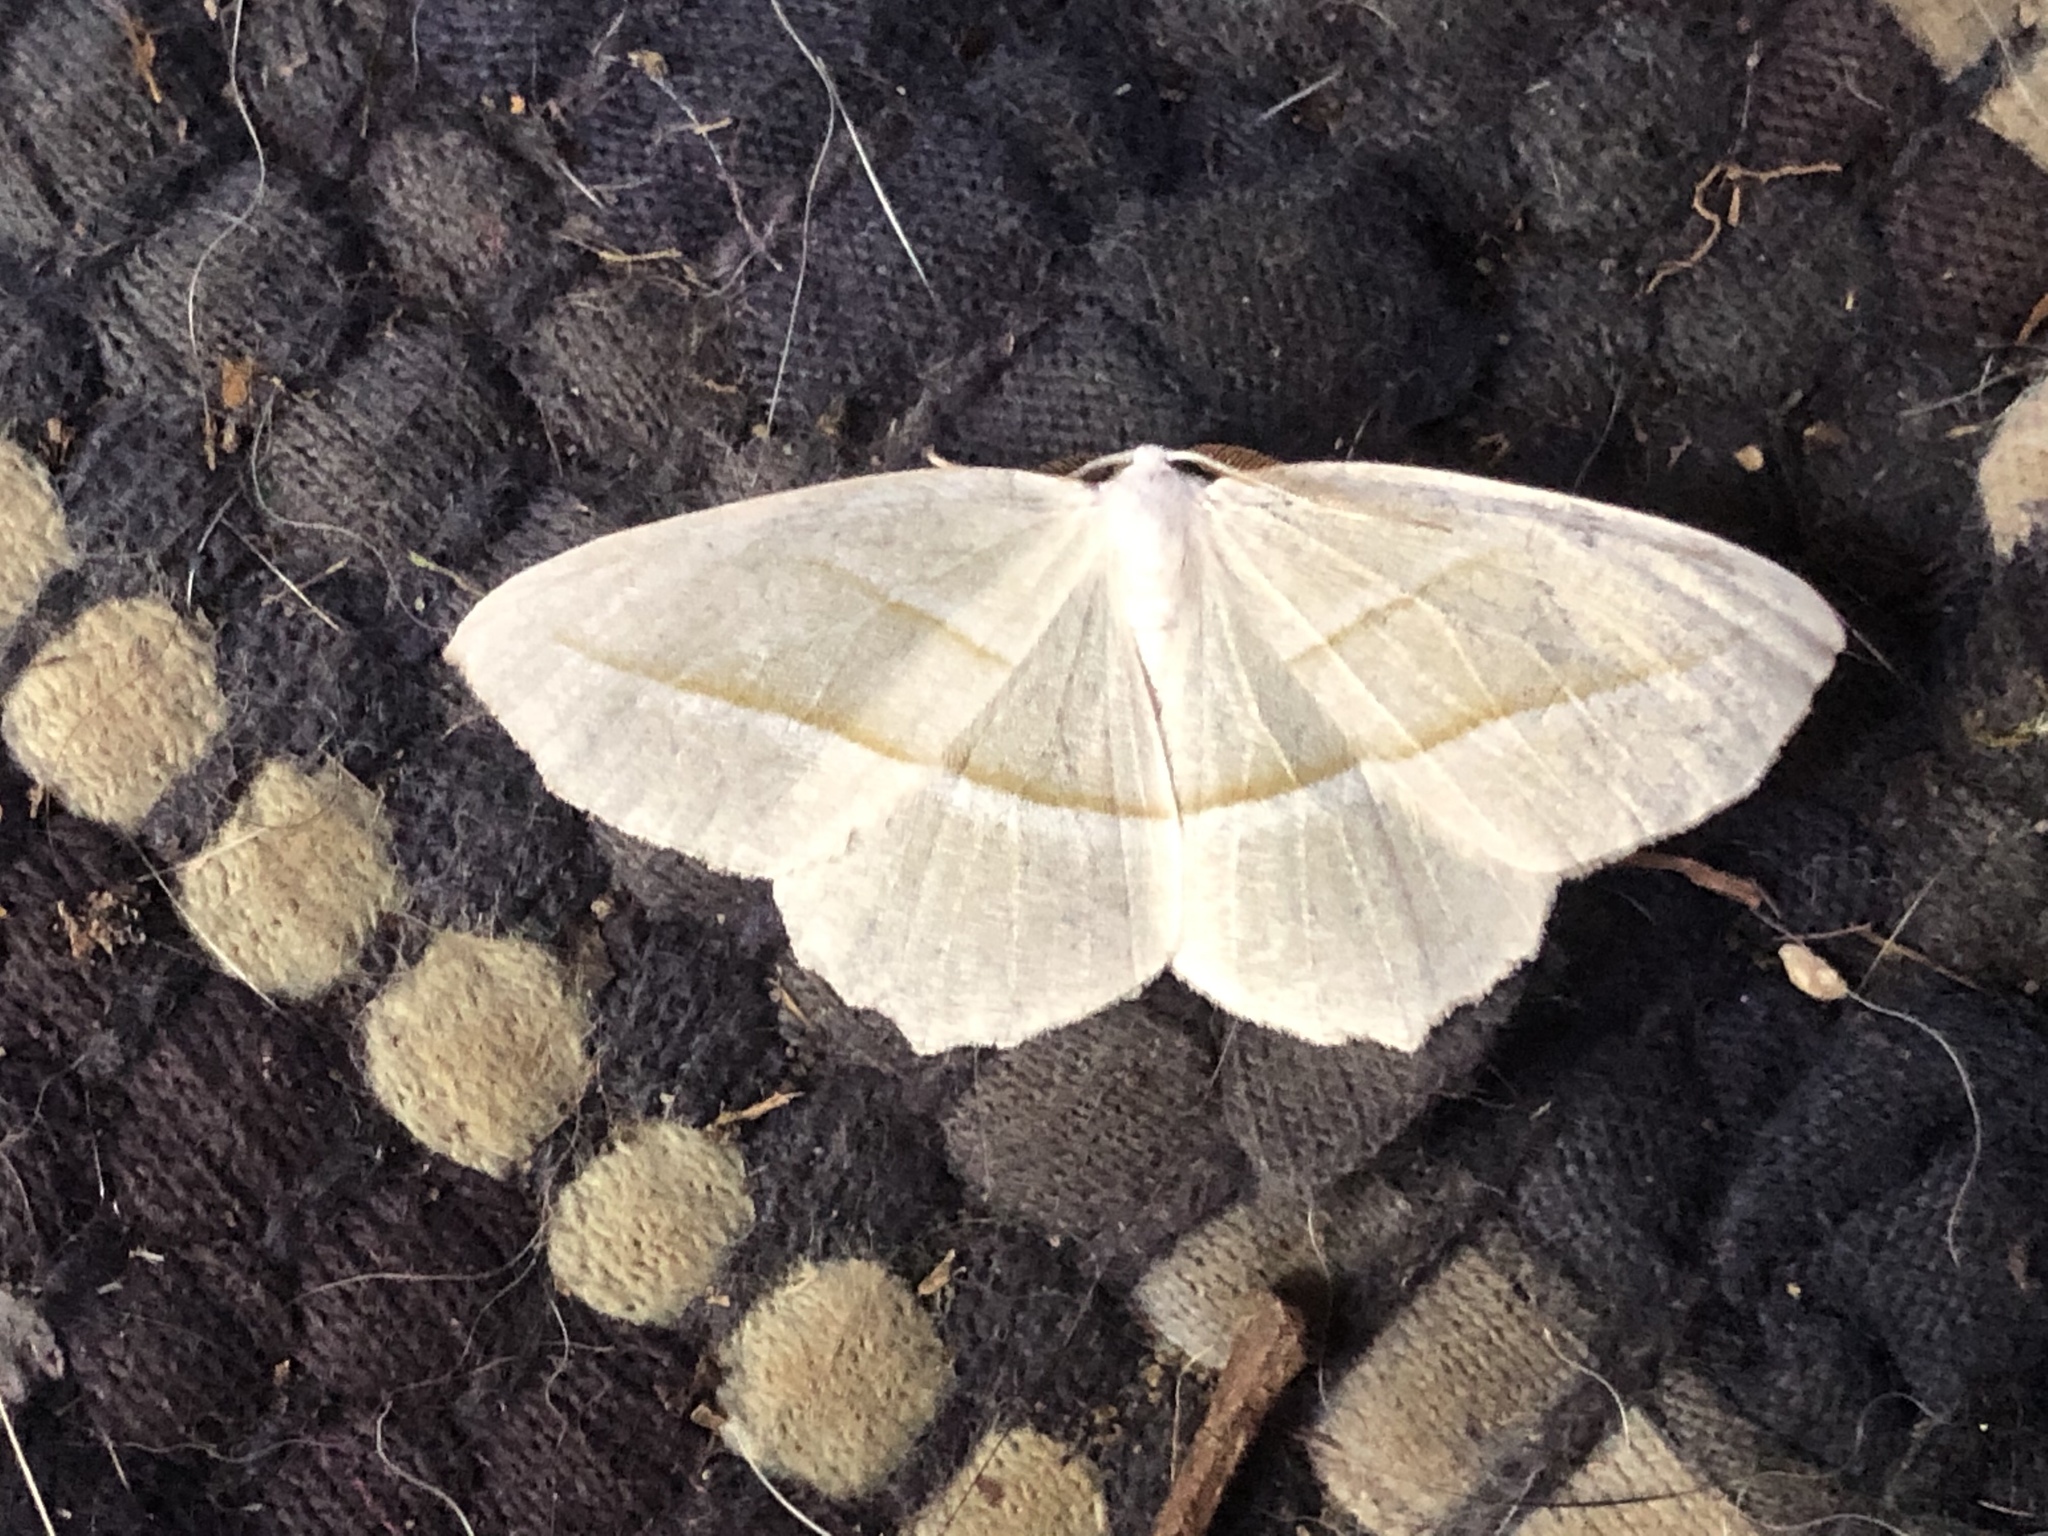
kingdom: Animalia
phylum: Arthropoda
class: Insecta
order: Lepidoptera
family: Geometridae
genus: Campaea
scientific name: Campaea perlata
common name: Fringed looper
